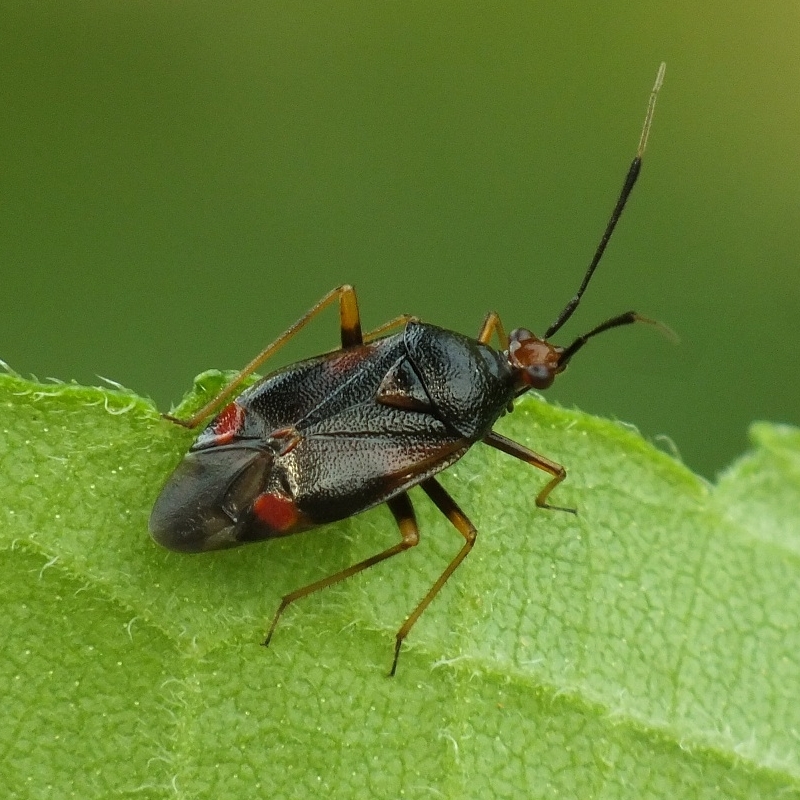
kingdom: Animalia
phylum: Arthropoda
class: Insecta
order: Hemiptera
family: Miridae
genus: Deraeocoris
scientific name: Deraeocoris ruber
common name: Plant bug
